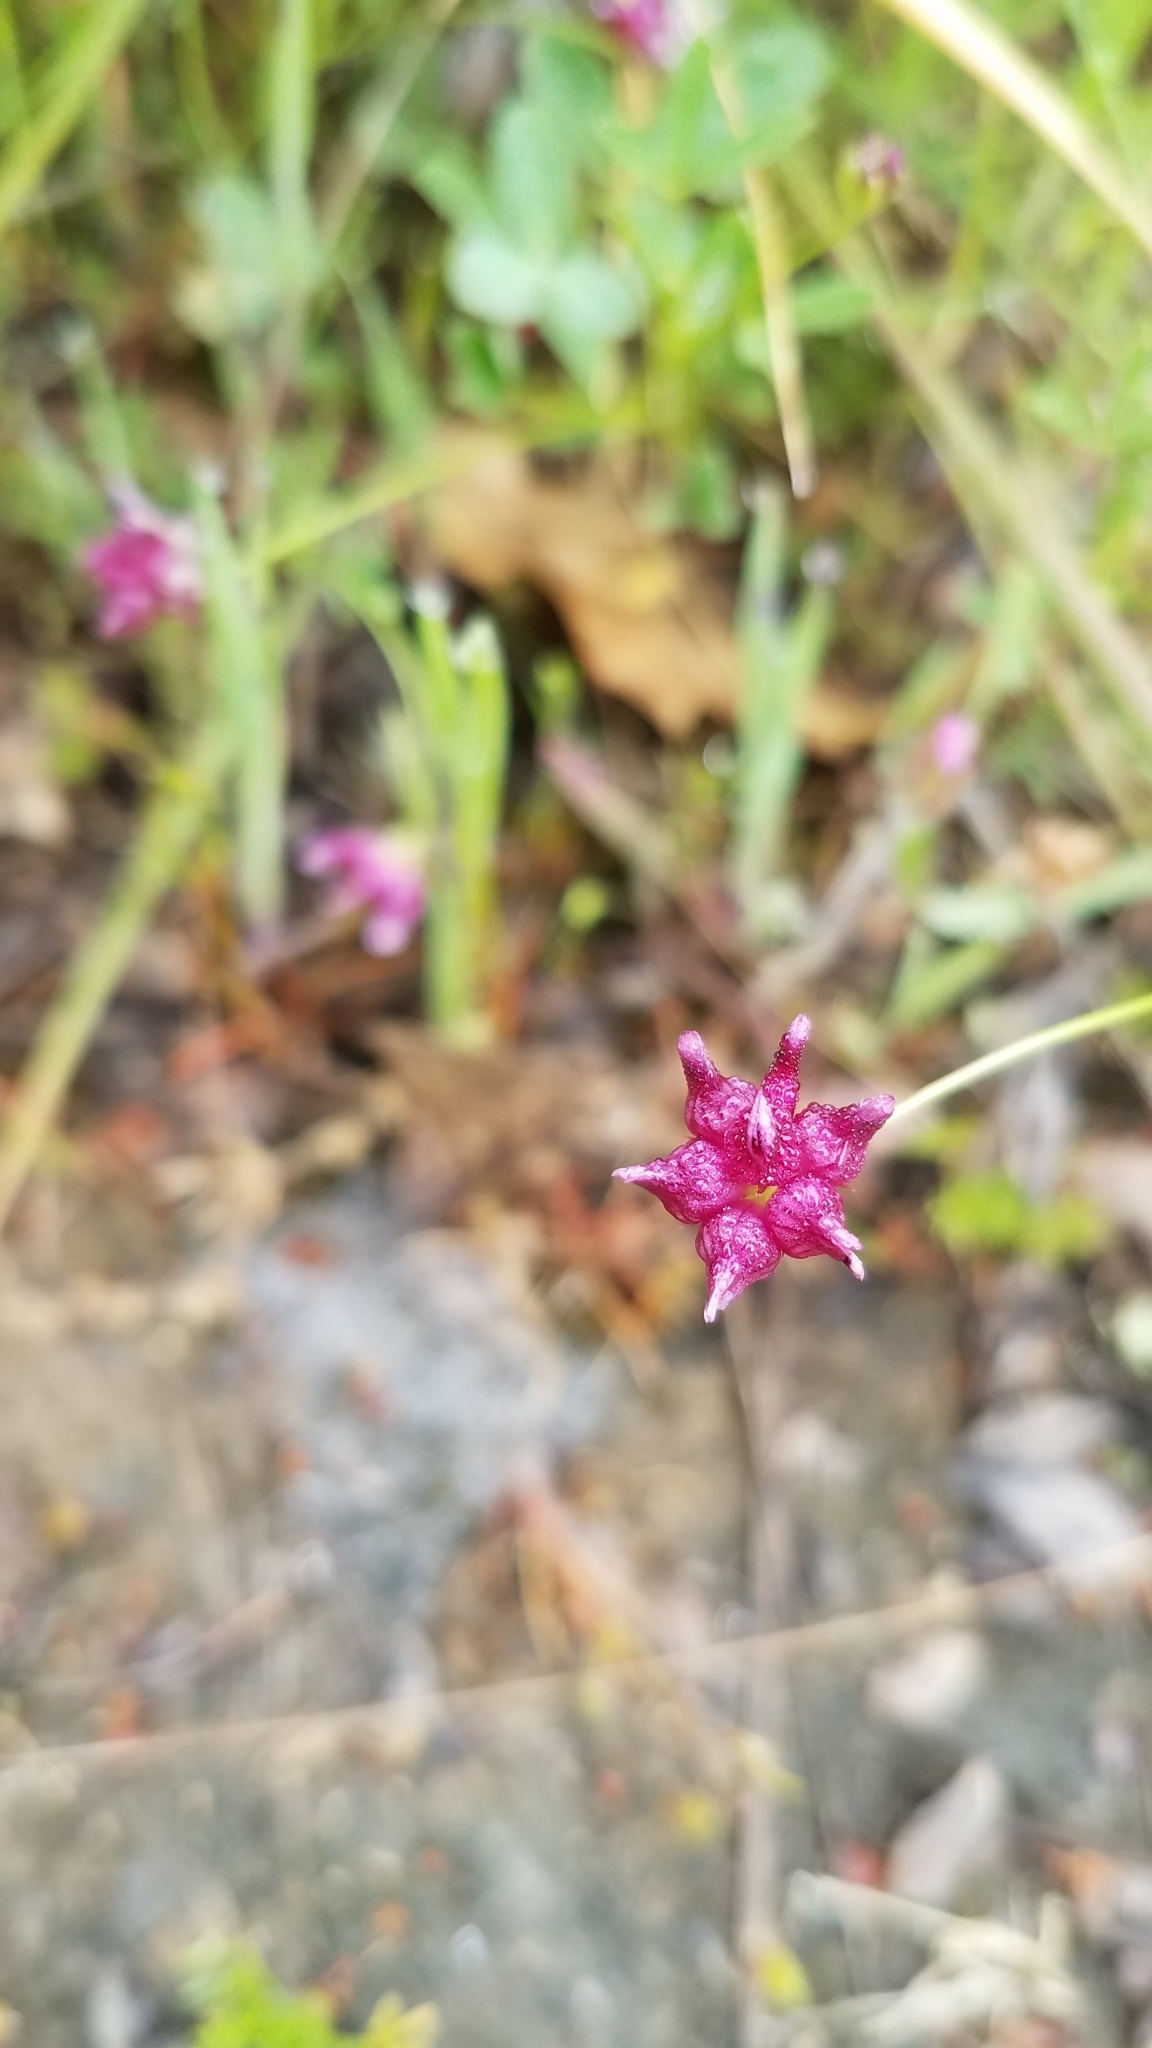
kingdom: Plantae
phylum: Tracheophyta
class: Magnoliopsida
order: Fabales
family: Fabaceae
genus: Trifolium
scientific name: Trifolium depauperatum
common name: Poverty clover
